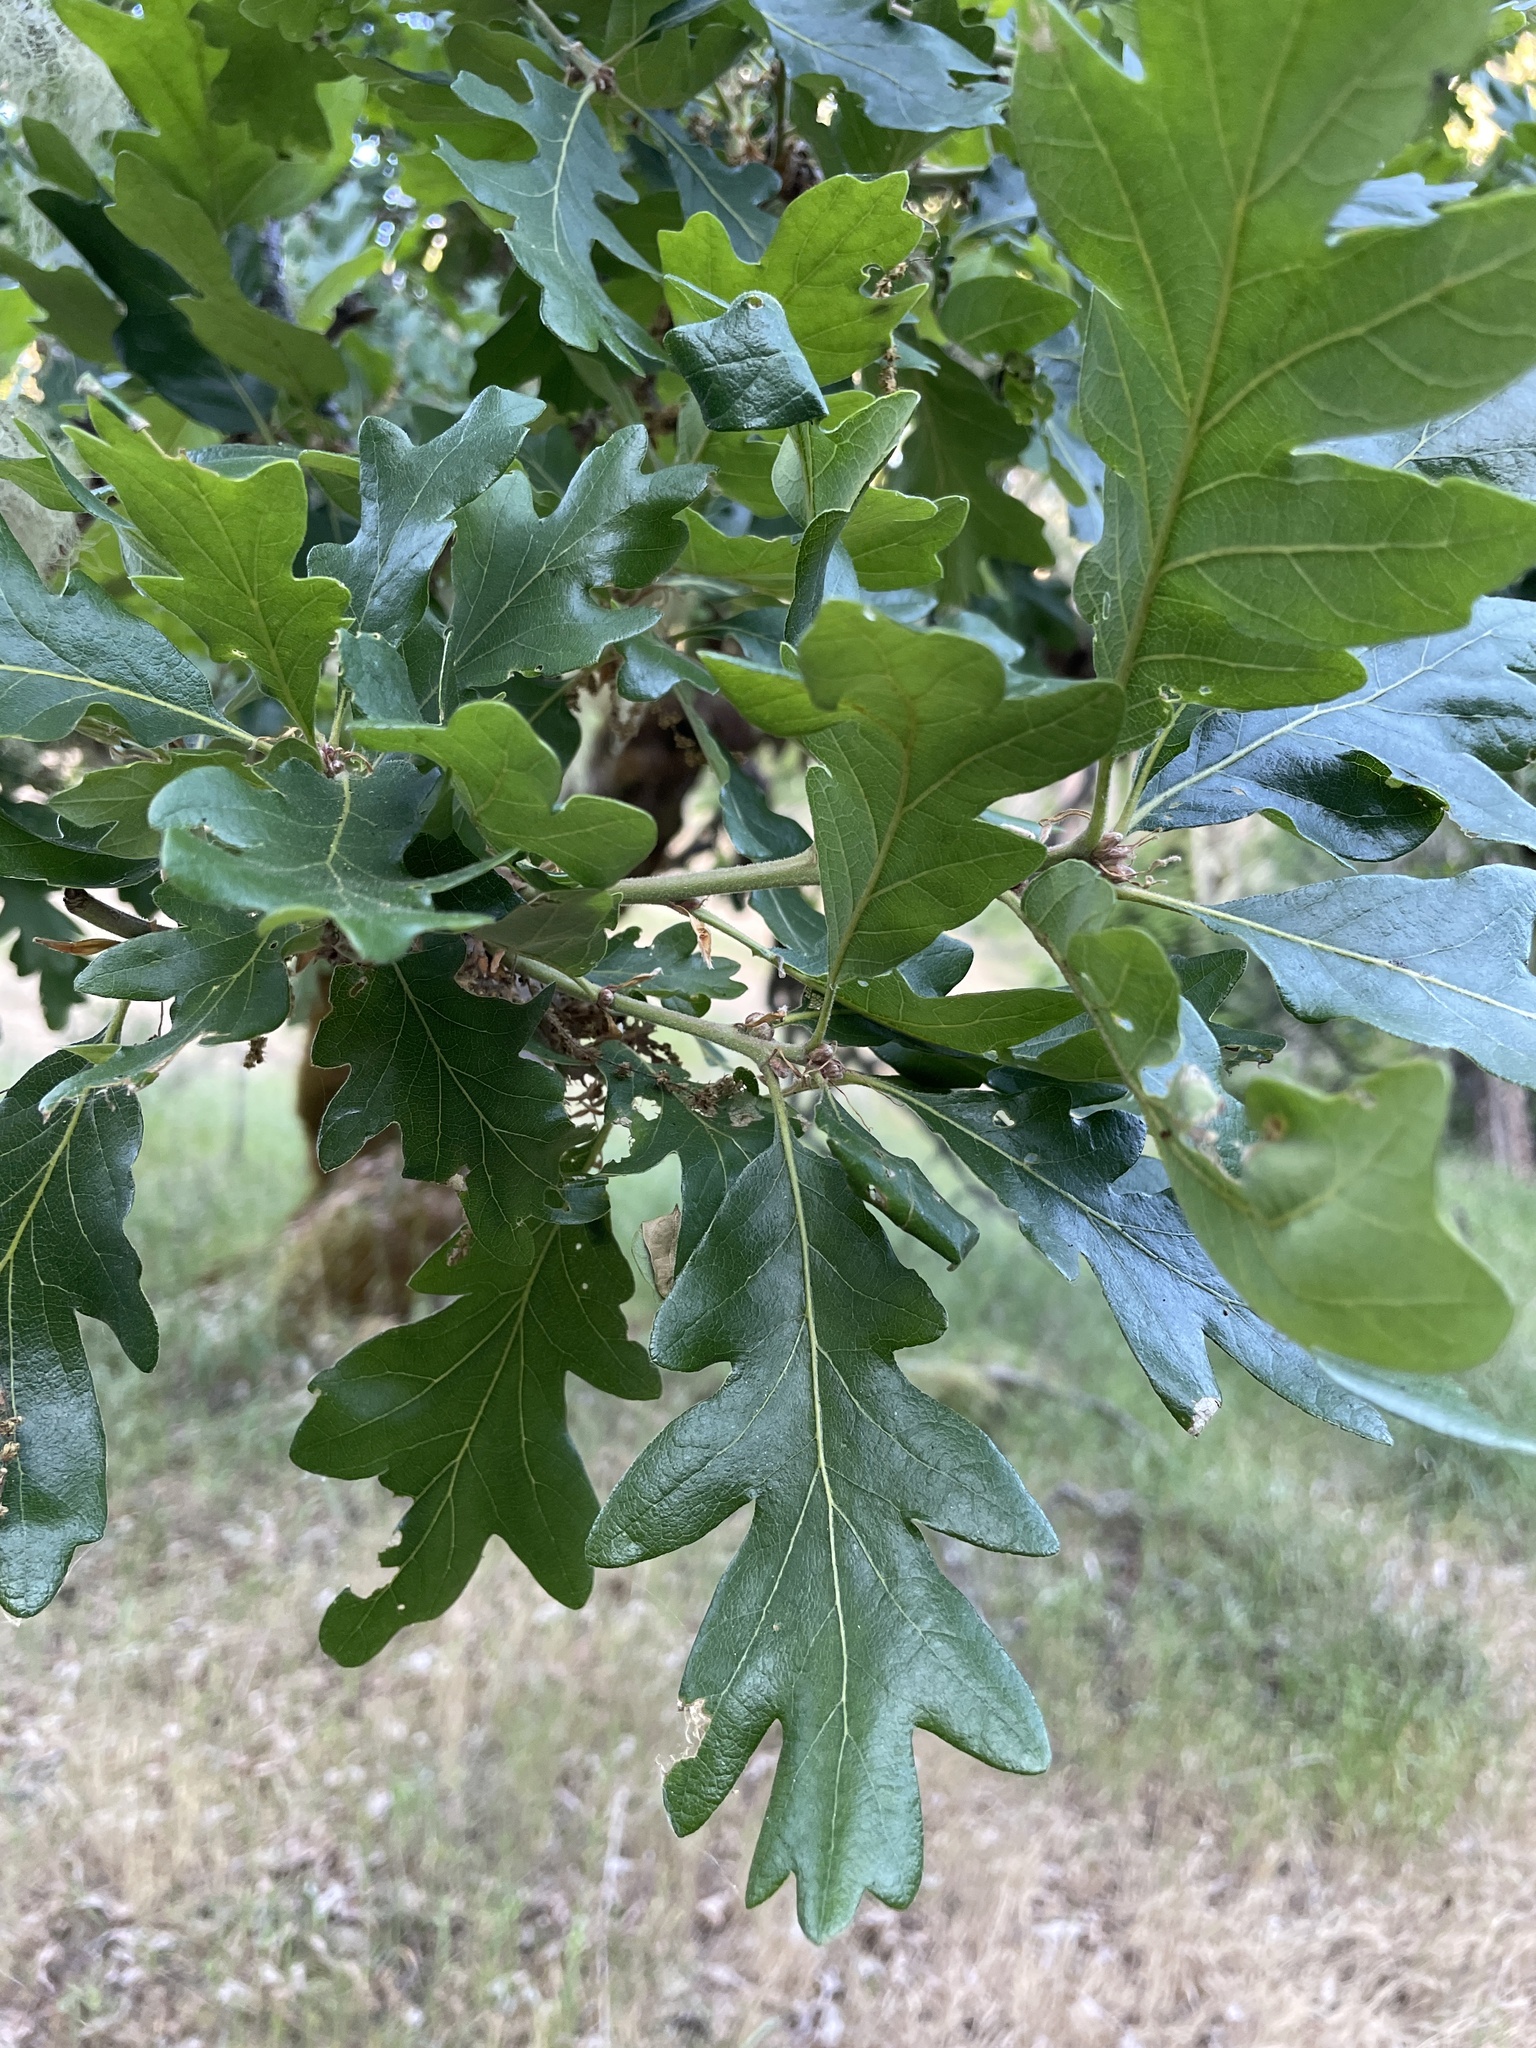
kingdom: Plantae
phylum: Tracheophyta
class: Magnoliopsida
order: Fagales
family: Fagaceae
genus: Quercus
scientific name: Quercus garryana
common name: Garry oak
